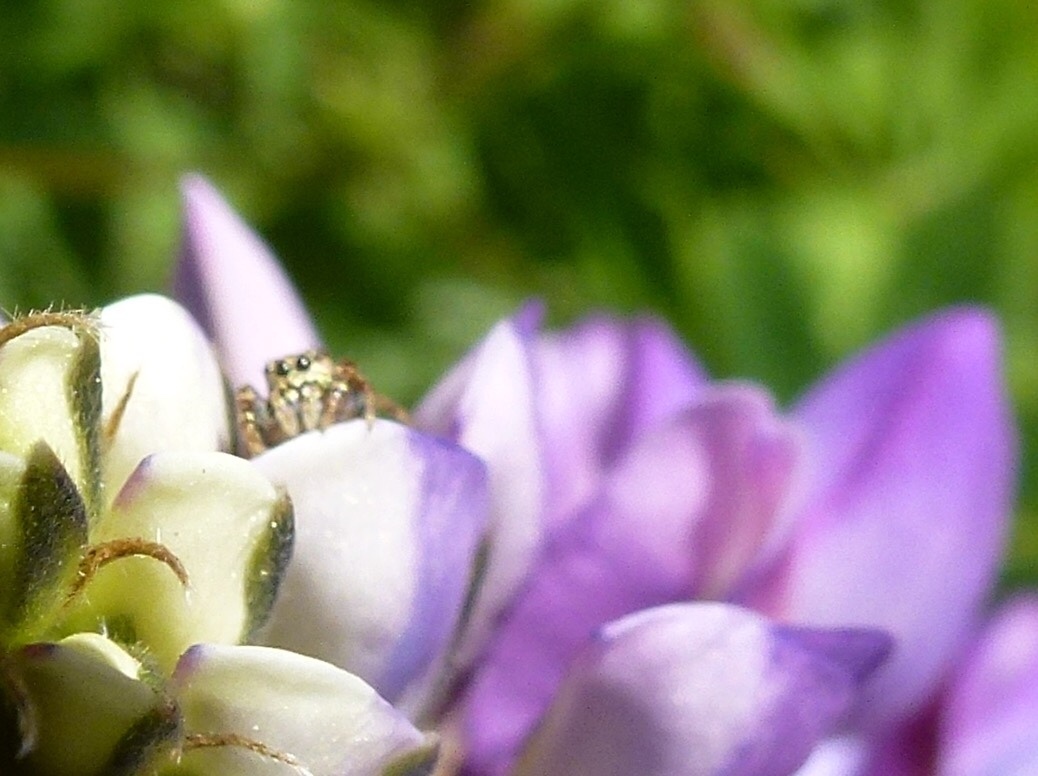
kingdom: Animalia
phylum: Arthropoda
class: Arachnida
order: Araneae
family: Salticidae
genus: Sassacus
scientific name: Sassacus vitis
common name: Jumping spiders
